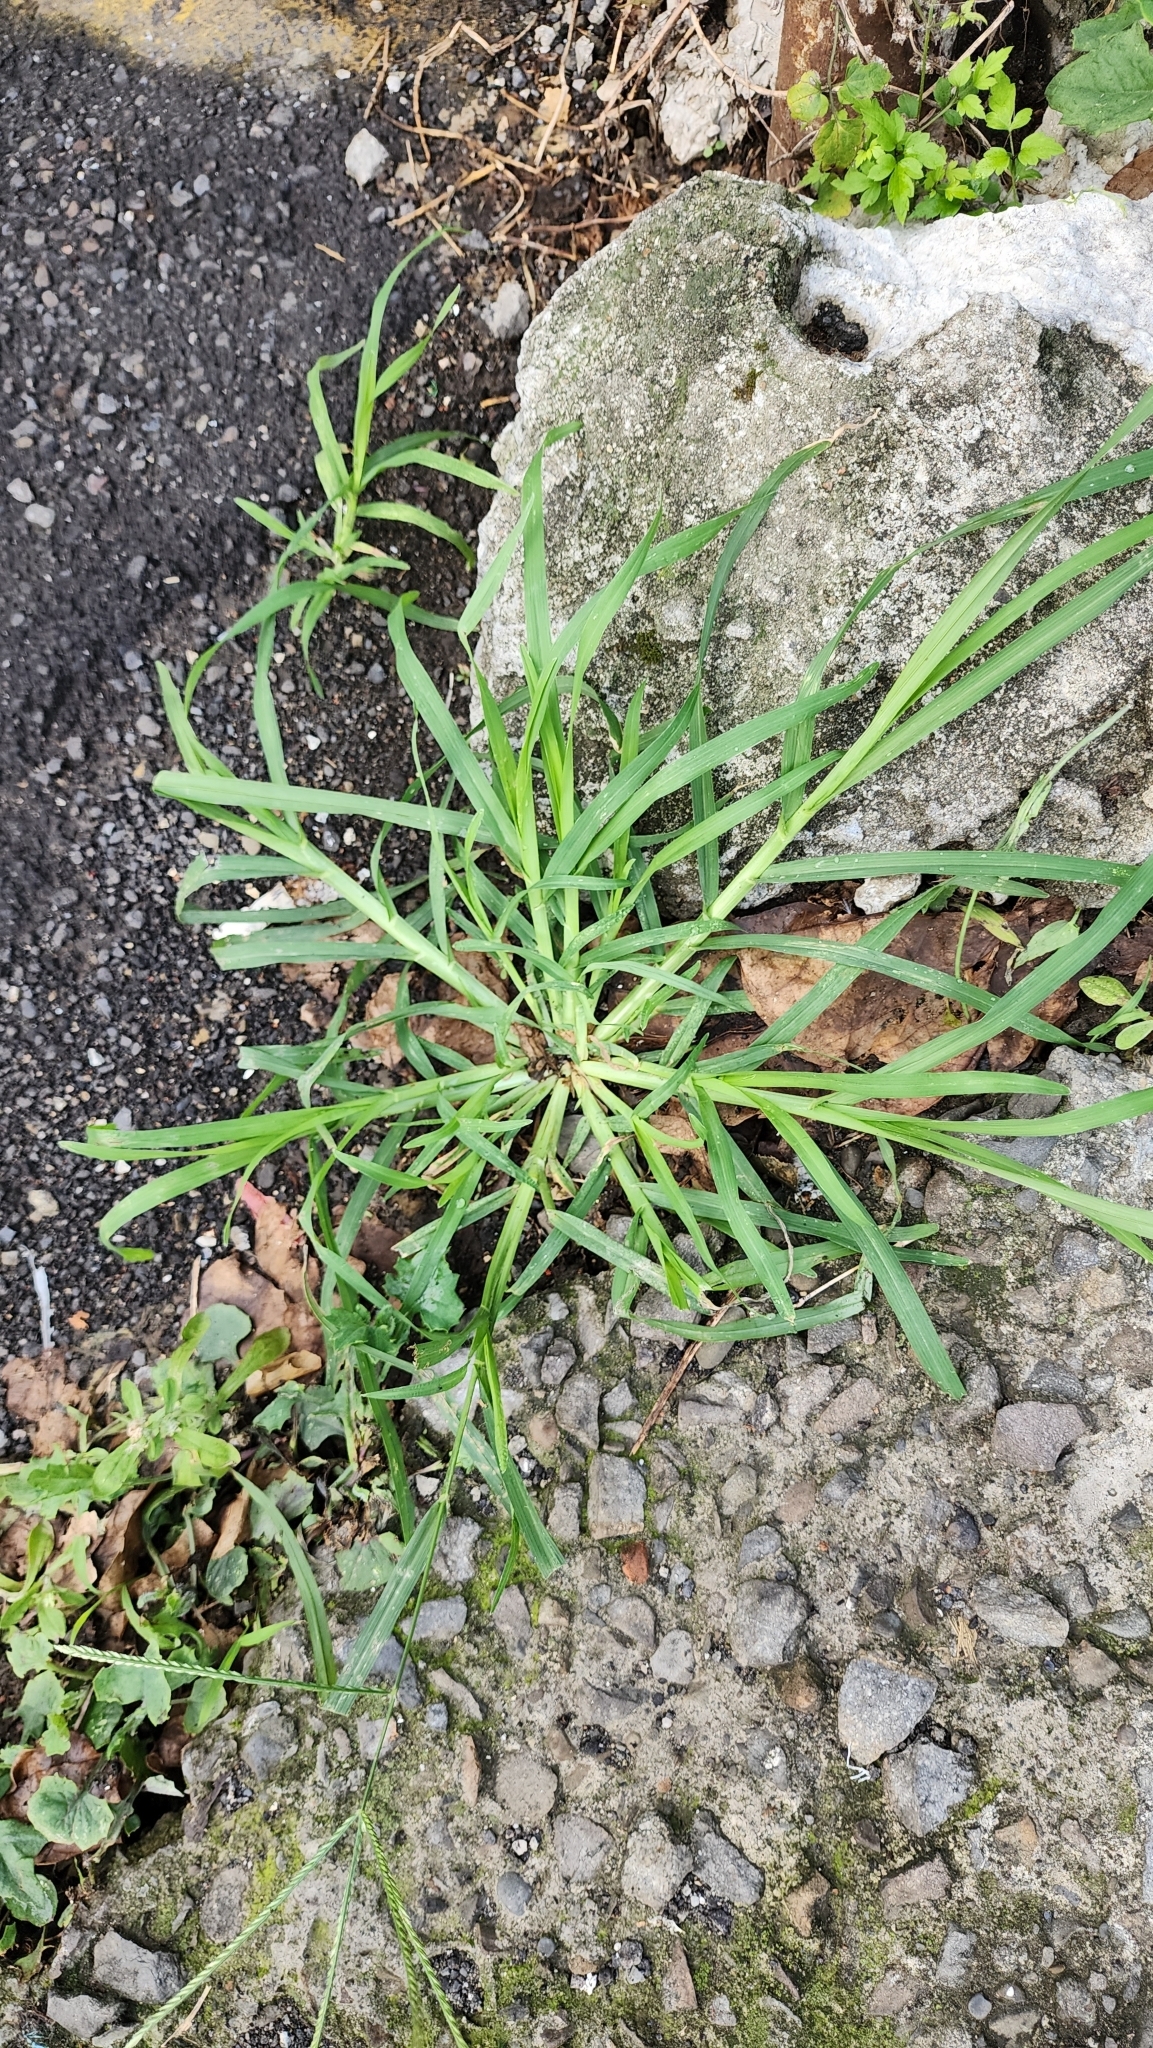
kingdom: Plantae
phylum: Tracheophyta
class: Liliopsida
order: Poales
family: Poaceae
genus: Eleusine
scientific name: Eleusine indica
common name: Yard-grass
